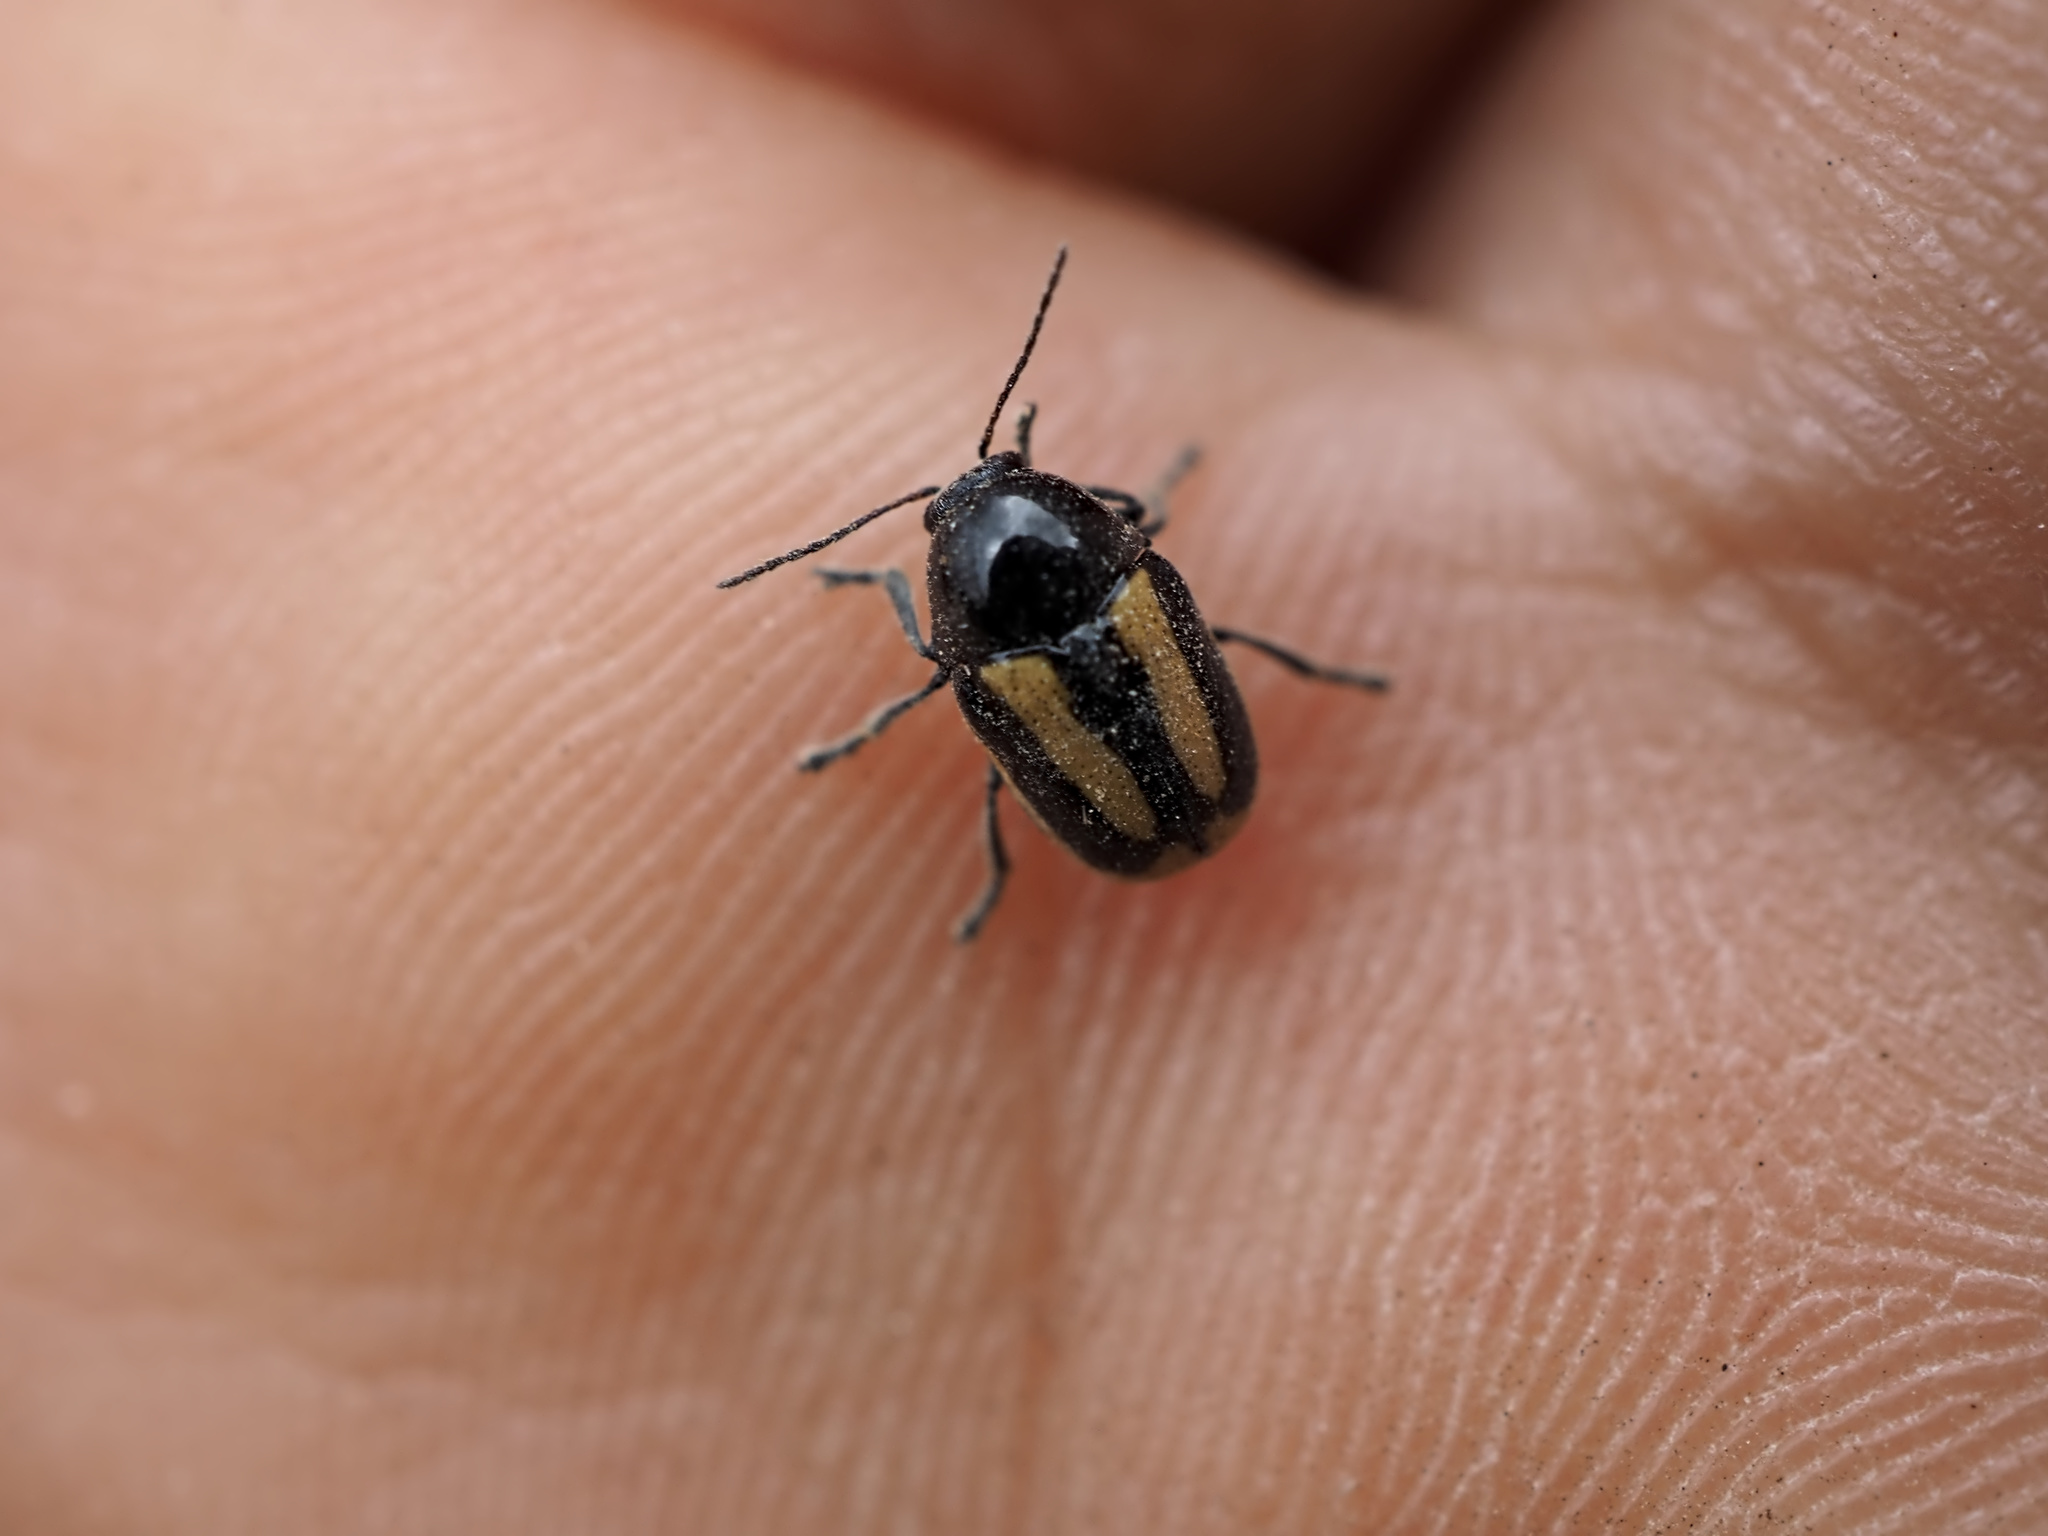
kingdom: Animalia
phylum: Arthropoda
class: Insecta
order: Coleoptera
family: Chrysomelidae
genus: Acalymma
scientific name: Acalymma vittatum
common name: Striped cucumber beetle
